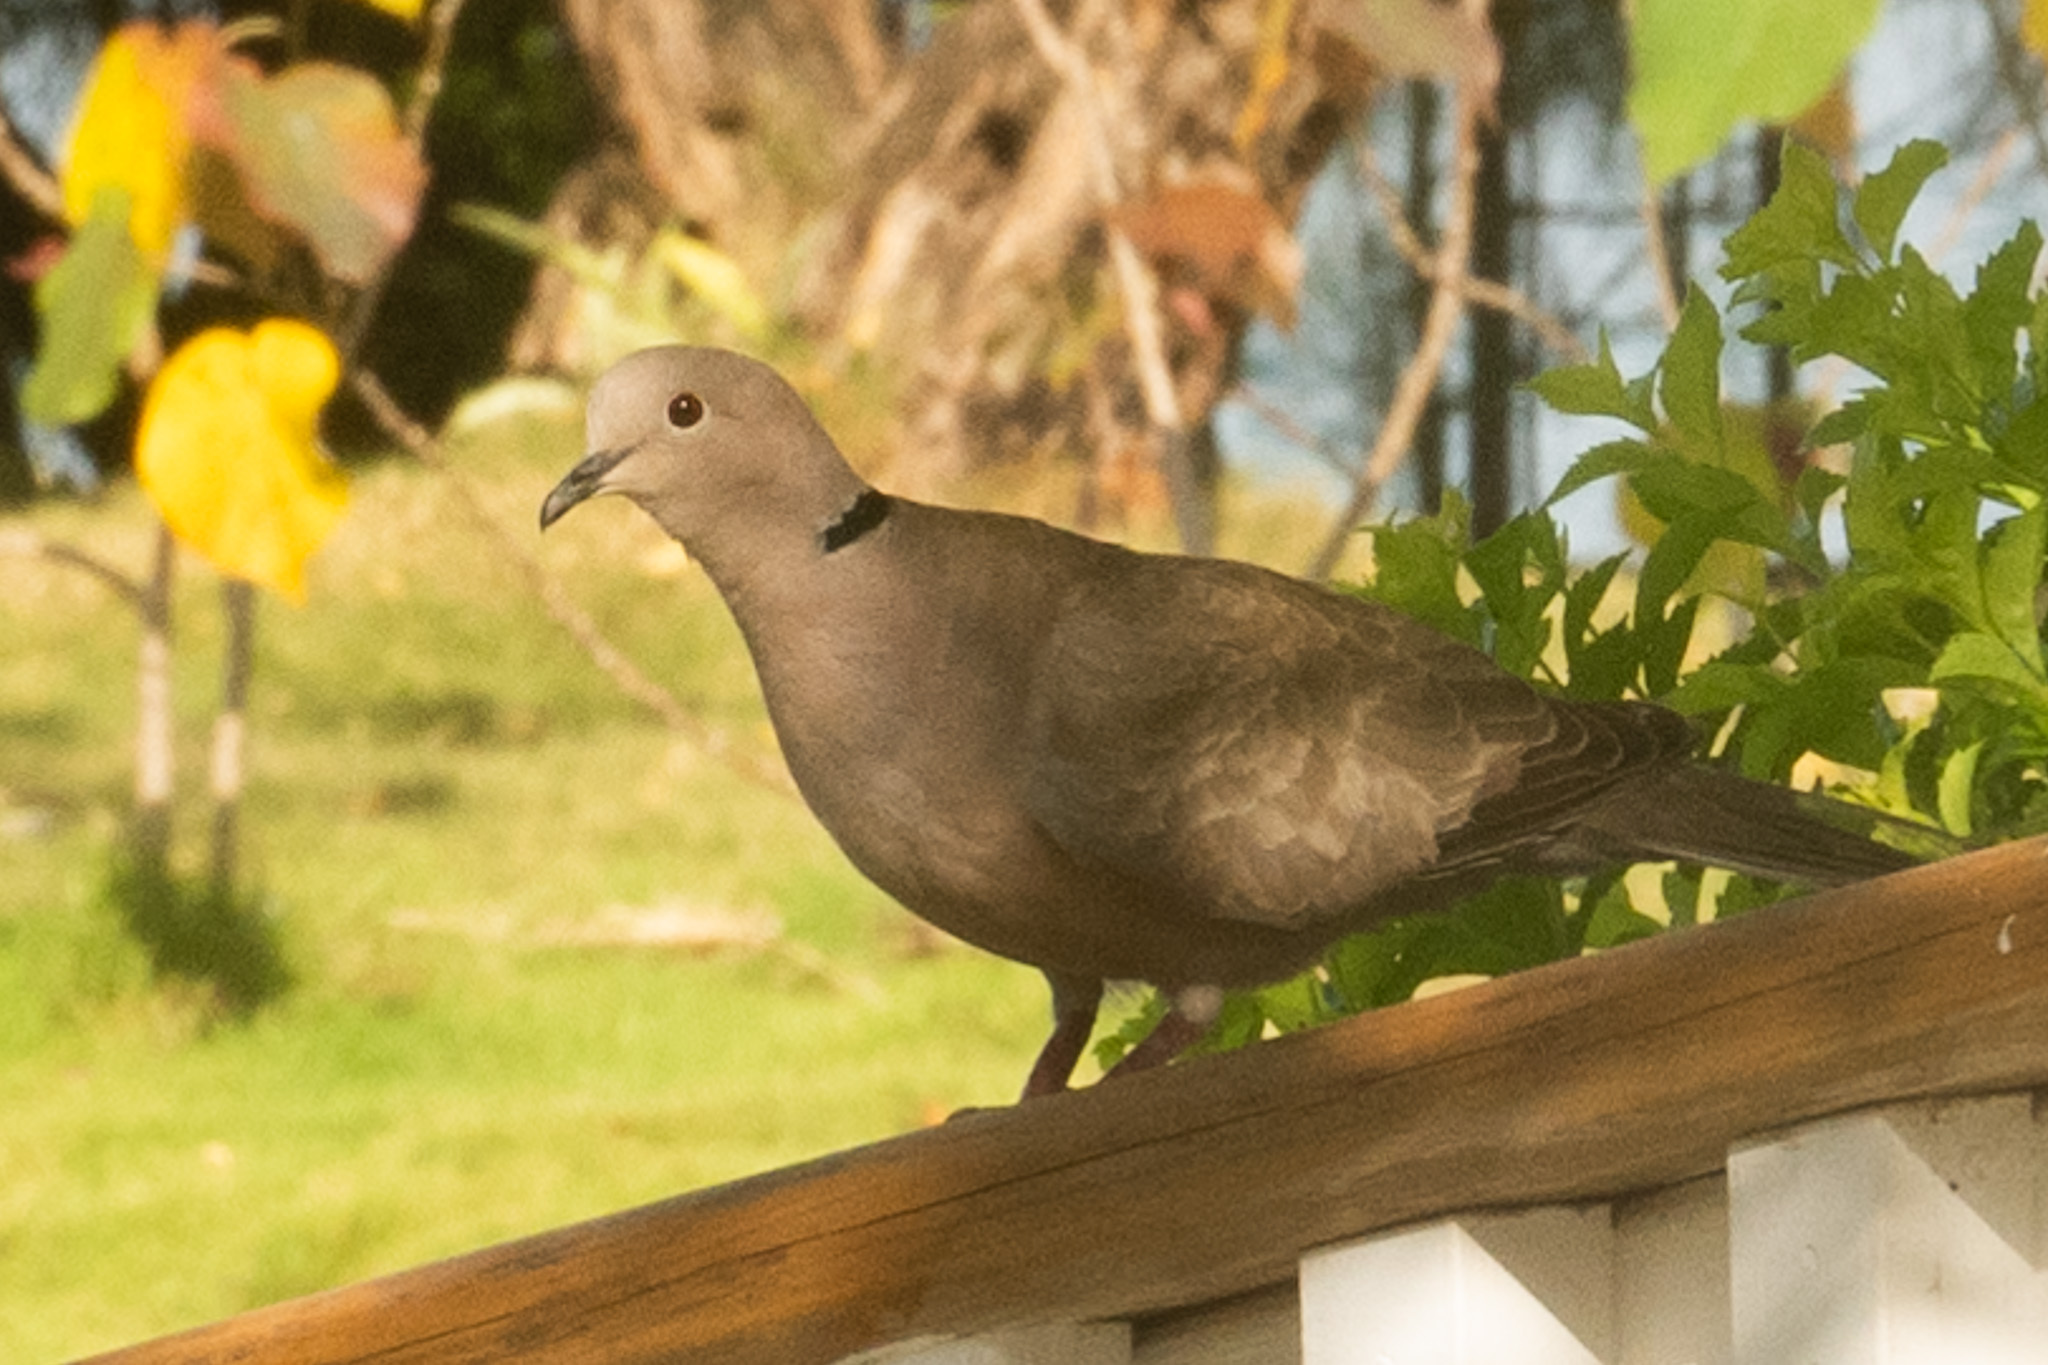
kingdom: Animalia
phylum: Chordata
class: Aves
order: Columbiformes
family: Columbidae
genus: Streptopelia
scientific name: Streptopelia decaocto
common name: Eurasian collared dove
